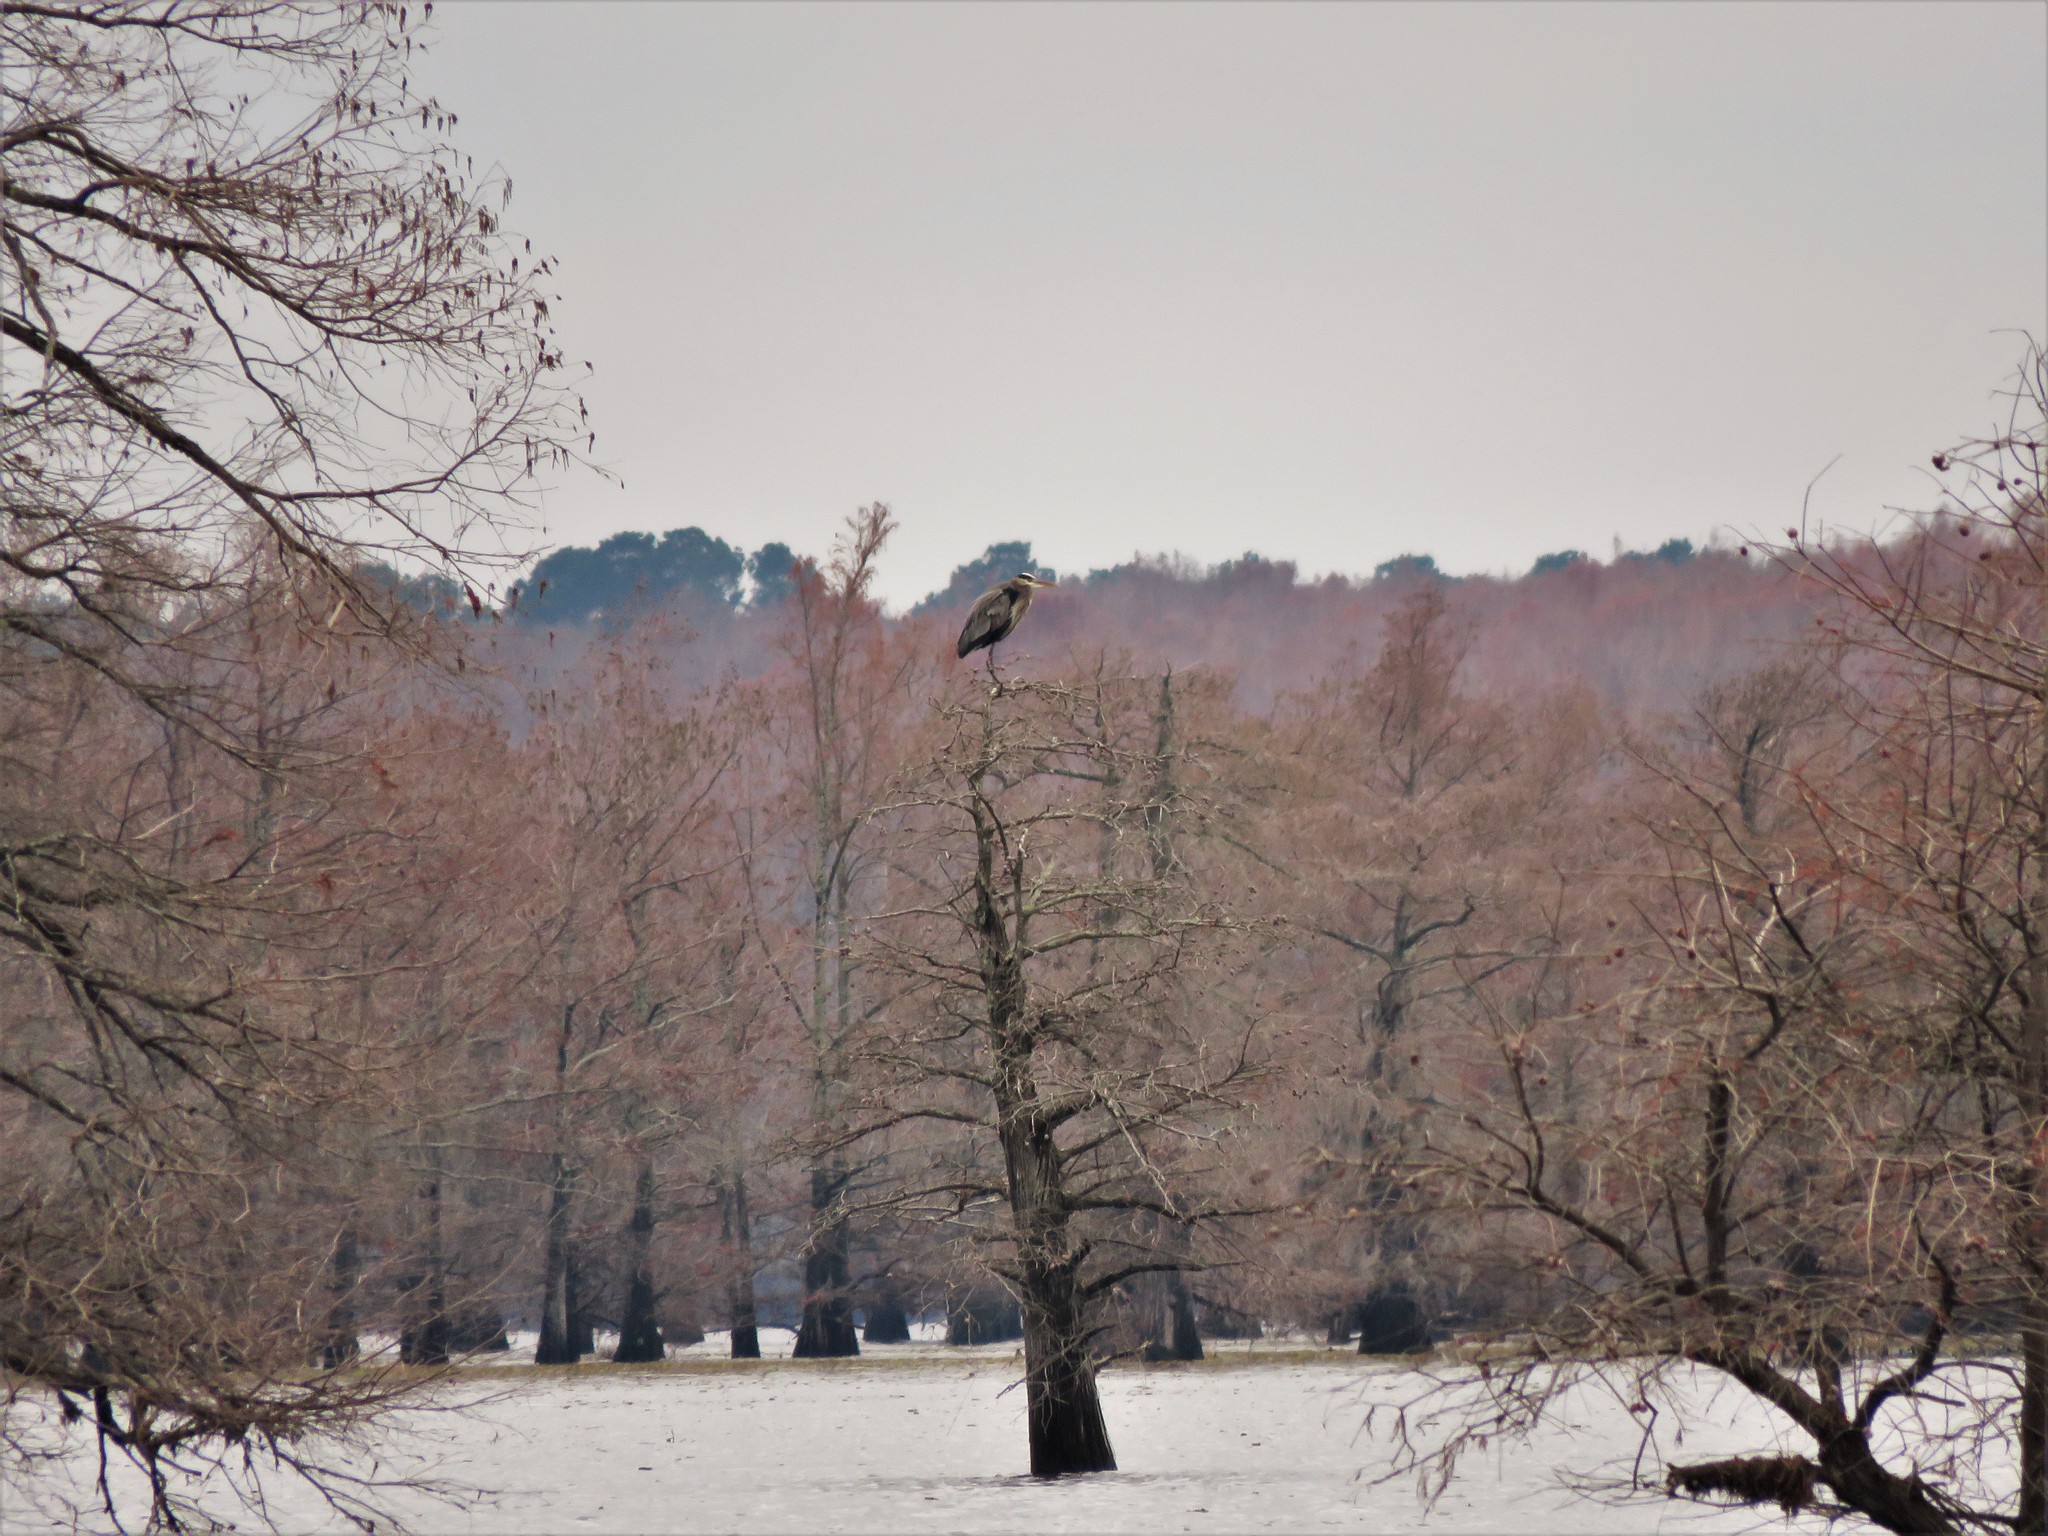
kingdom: Animalia
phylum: Chordata
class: Aves
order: Pelecaniformes
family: Ardeidae
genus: Ardea
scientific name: Ardea herodias
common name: Great blue heron
